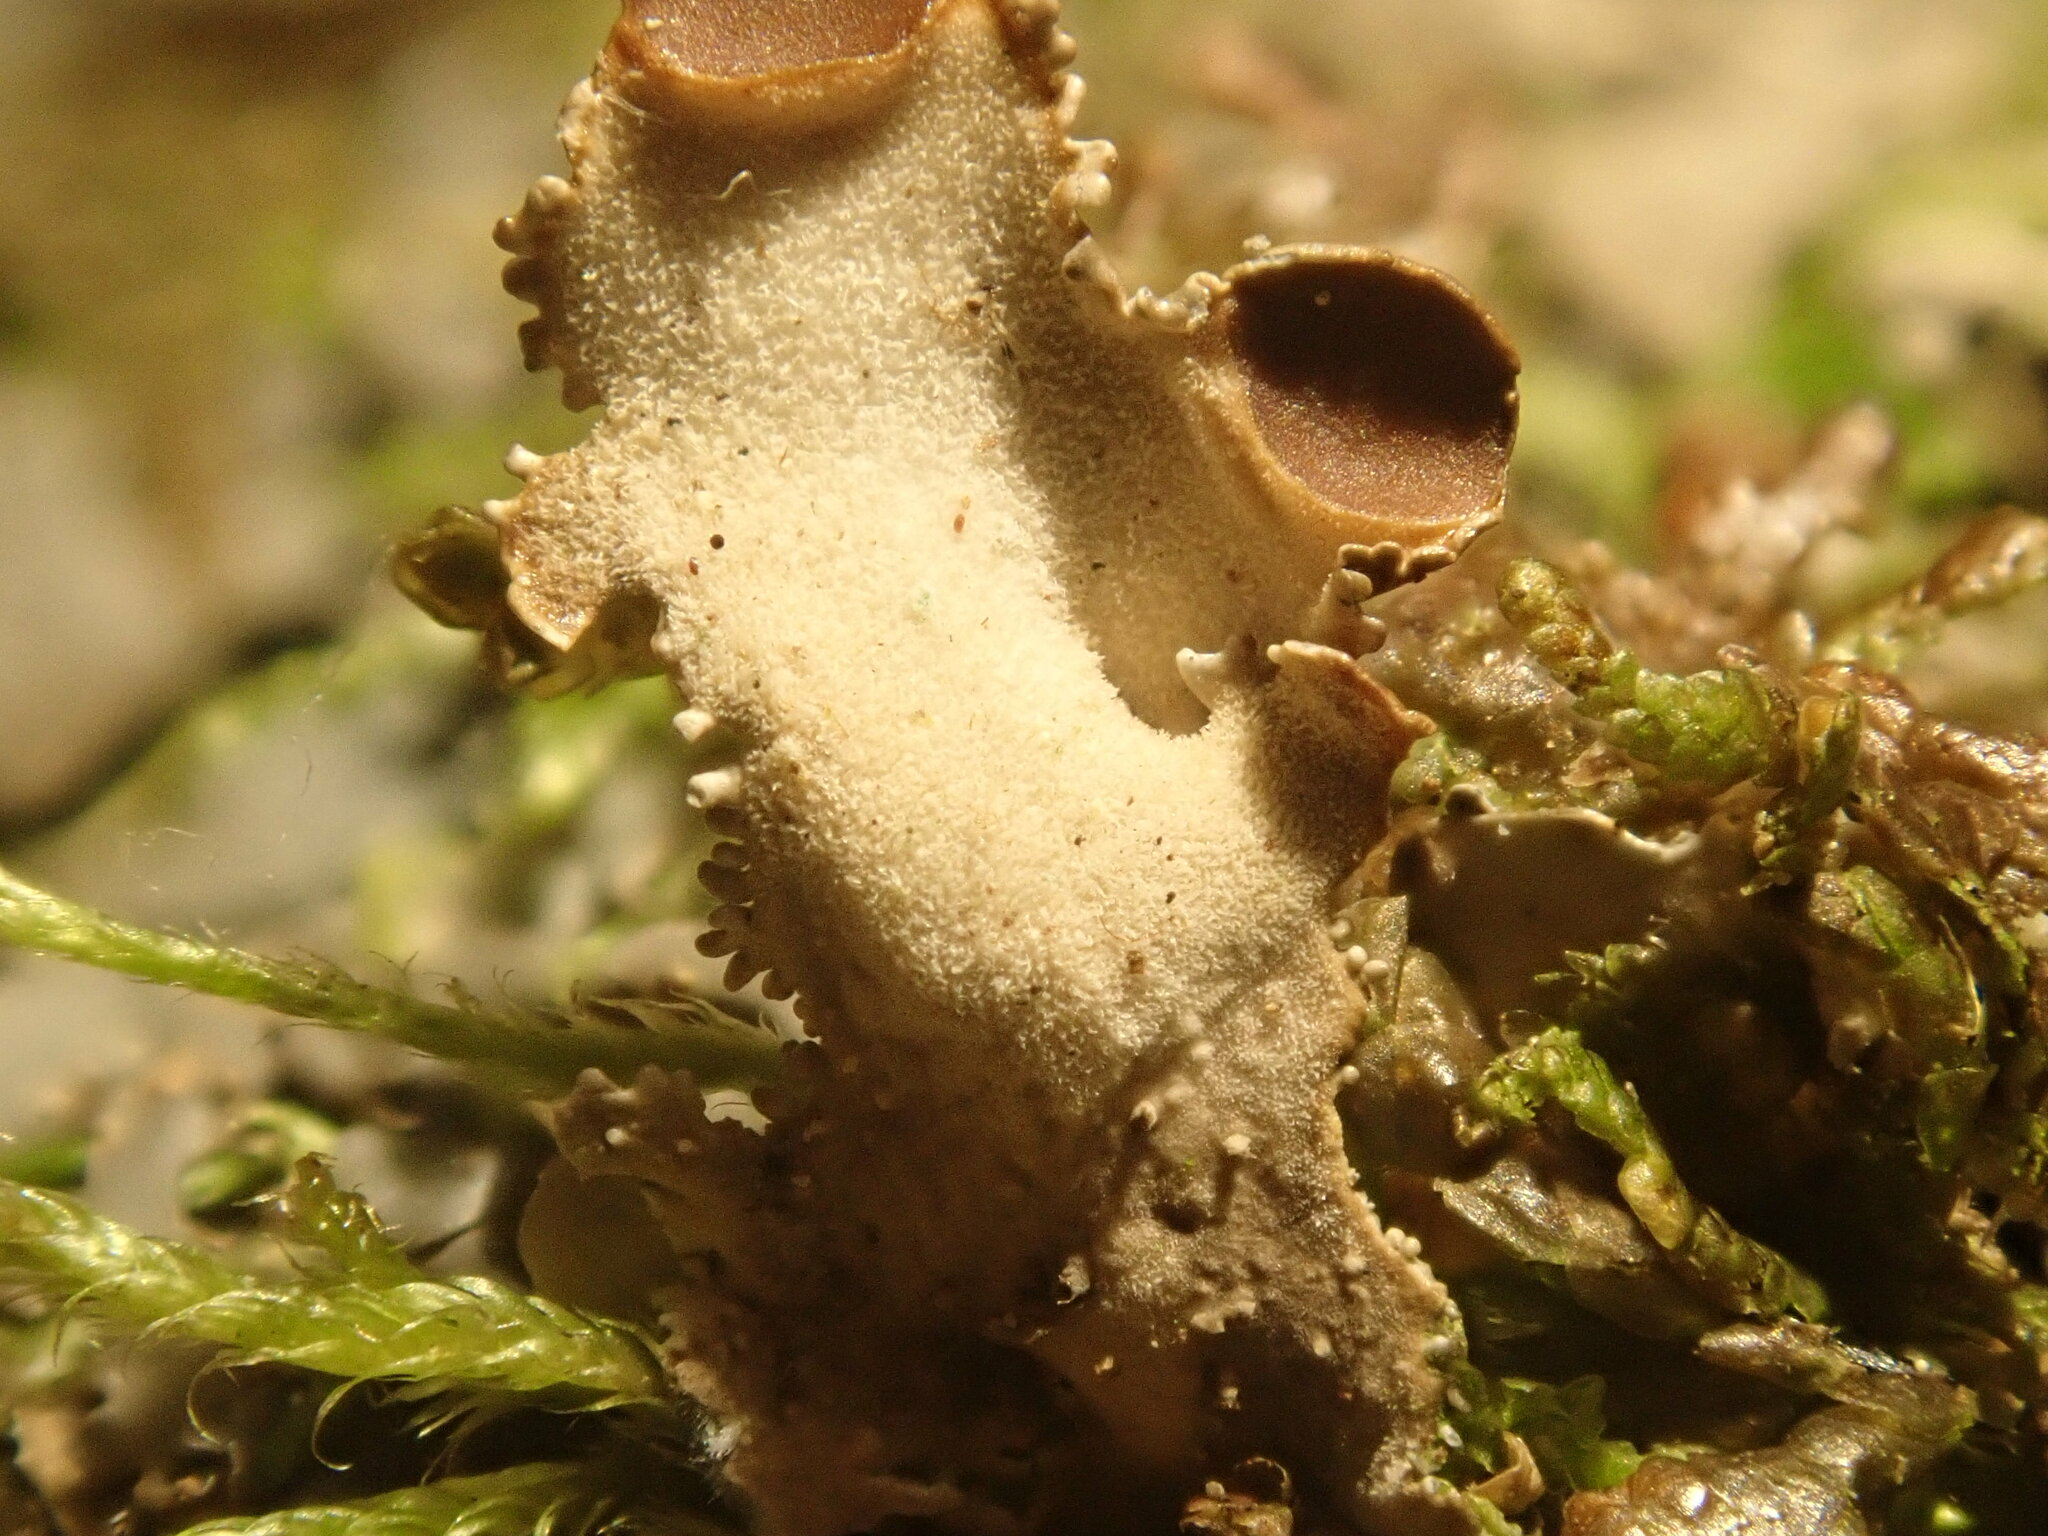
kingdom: Fungi
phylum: Ascomycota
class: Lecanoromycetes
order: Peltigerales
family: Nephromataceae
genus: Nephroma
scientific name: Nephroma resupinatum
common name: Pimpled kidney lichen
